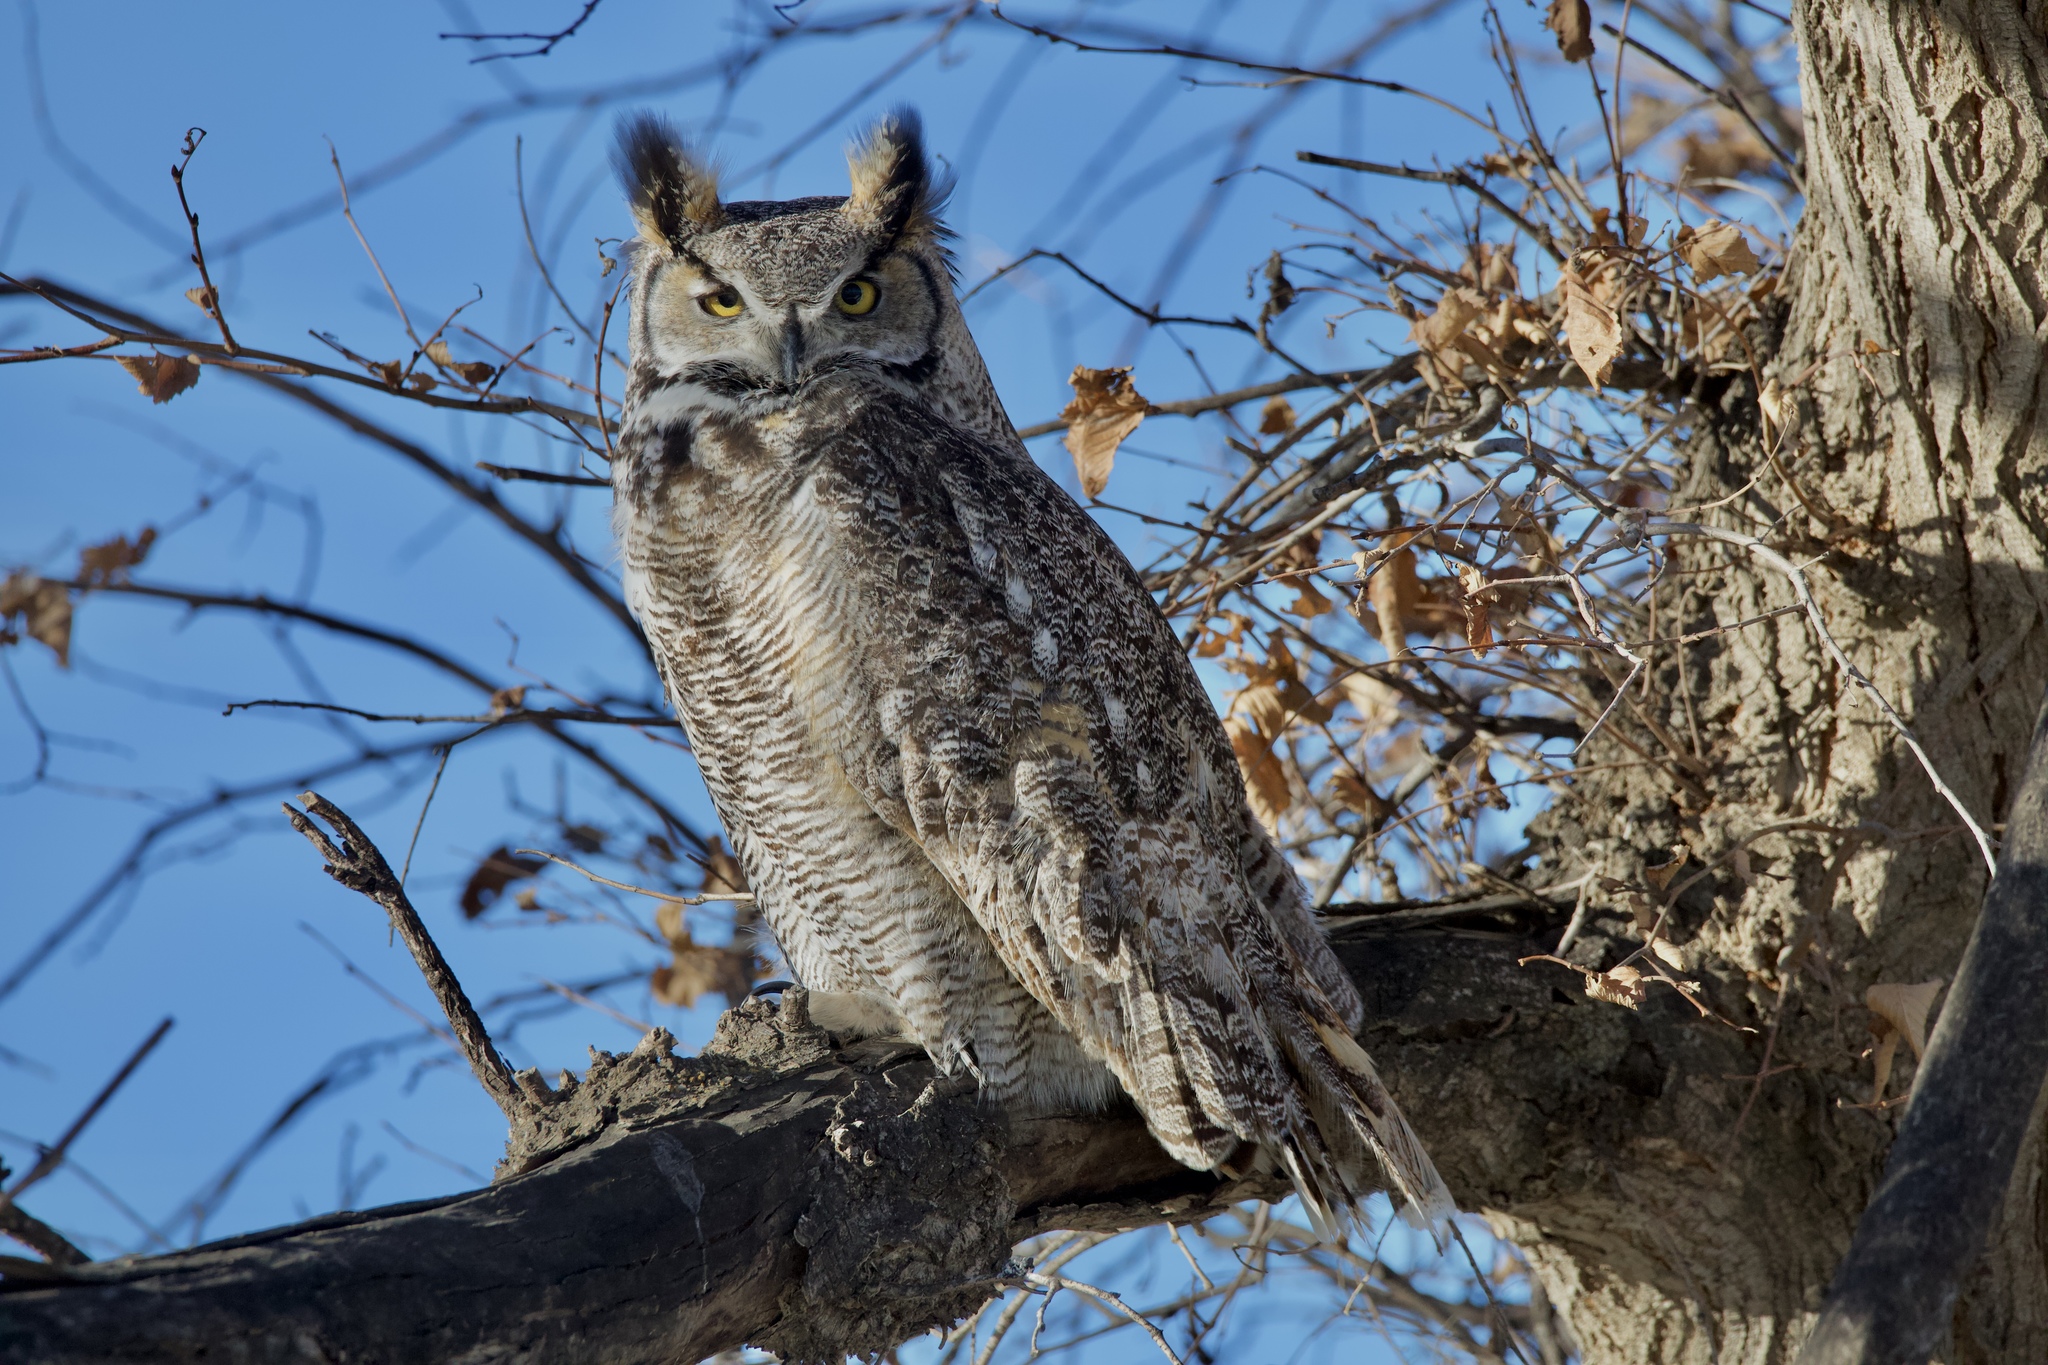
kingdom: Animalia
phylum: Chordata
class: Aves
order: Strigiformes
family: Strigidae
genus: Bubo
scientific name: Bubo virginianus
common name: Great horned owl
